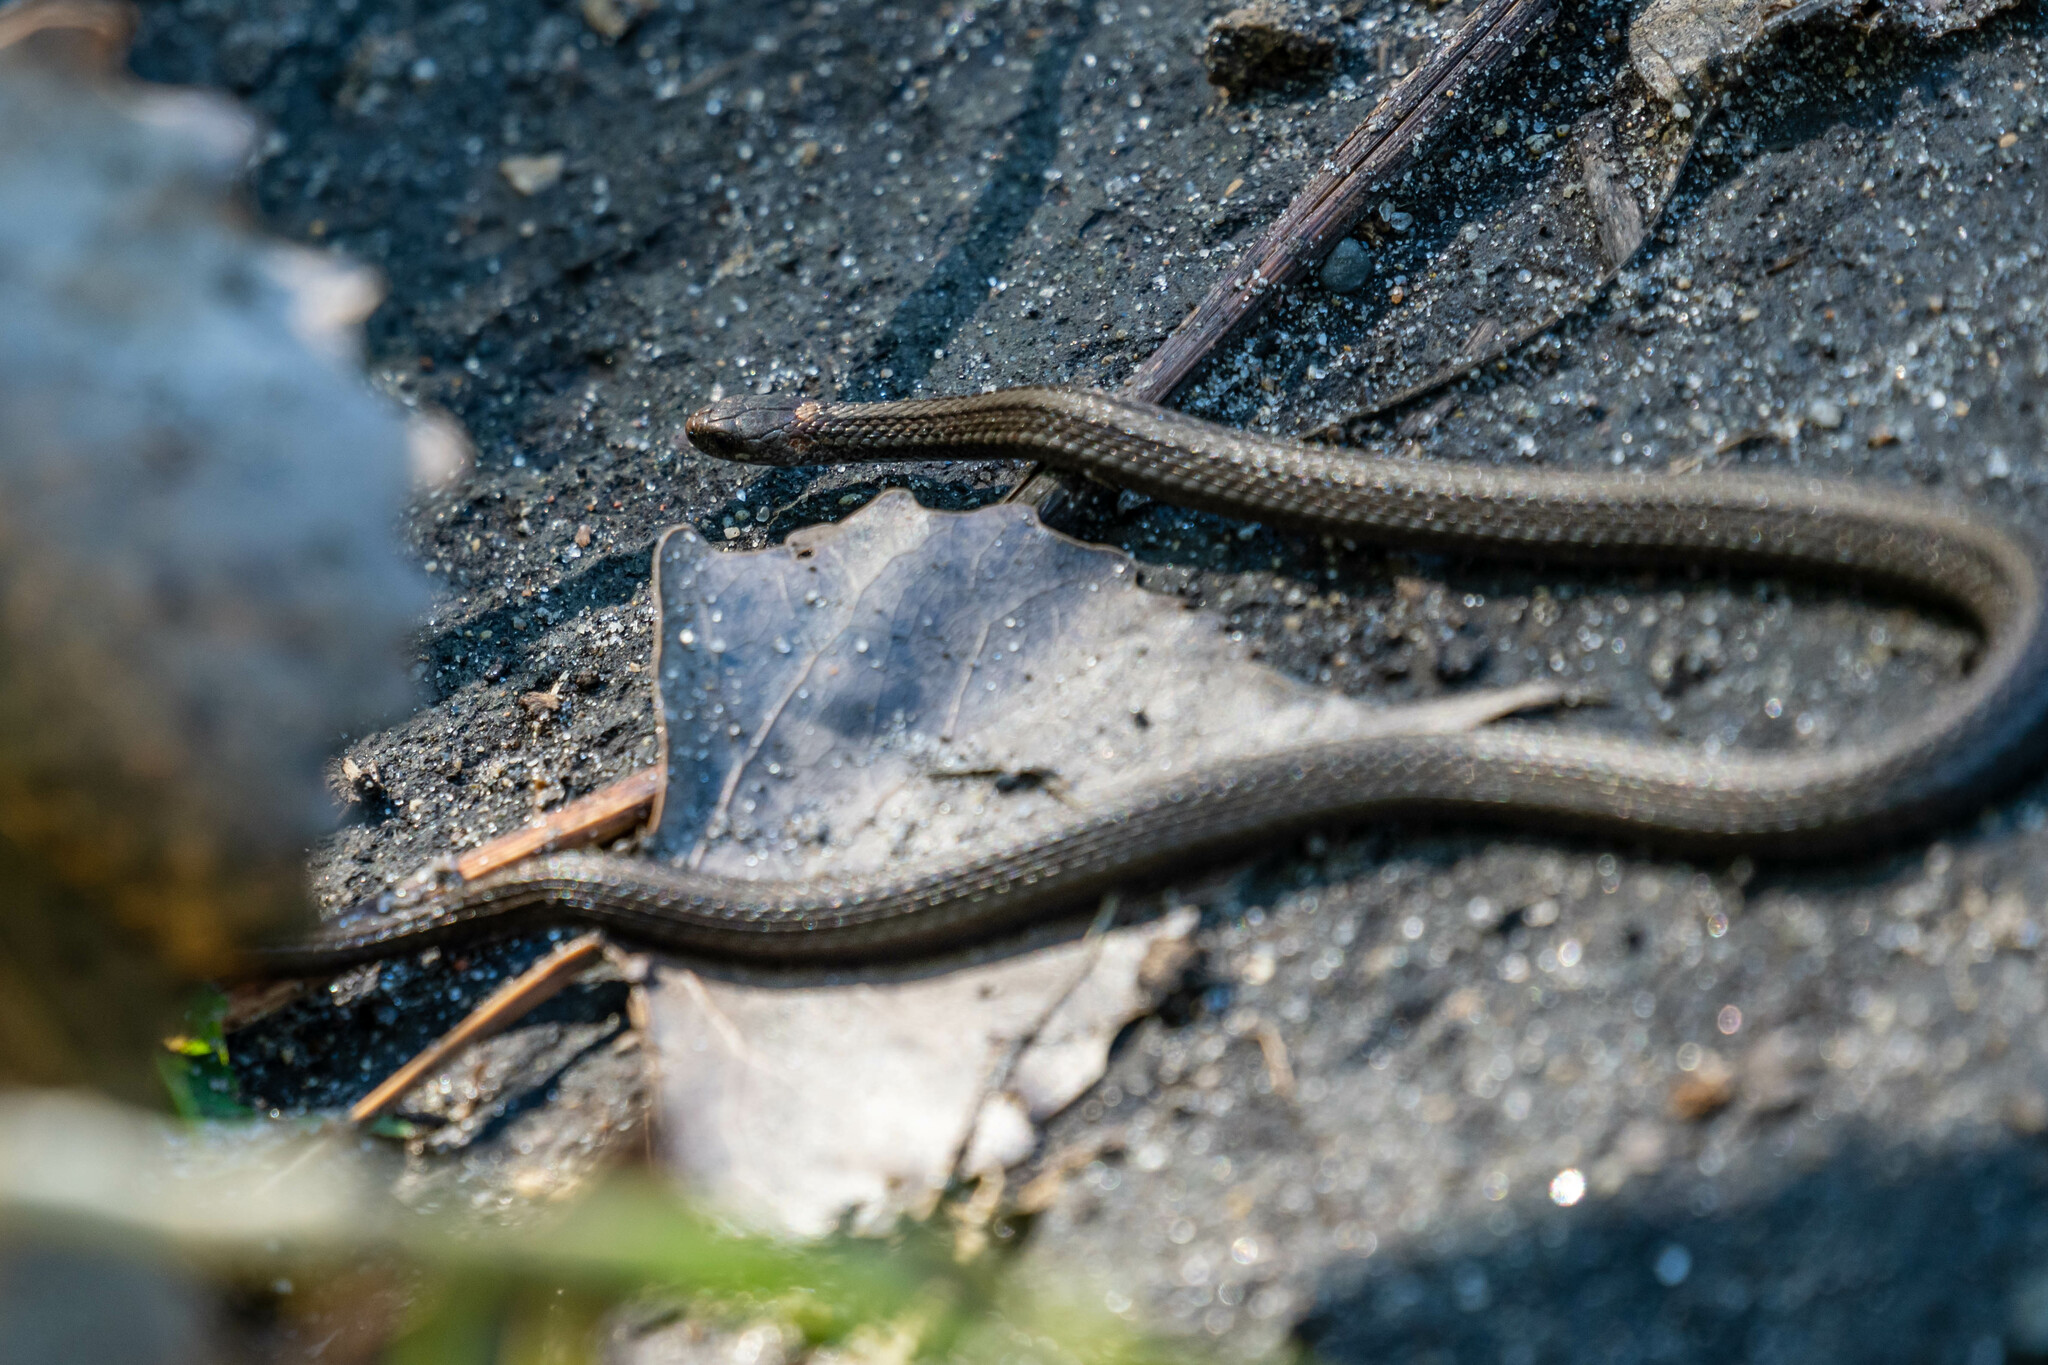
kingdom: Animalia
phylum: Chordata
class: Squamata
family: Colubridae
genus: Storeria
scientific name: Storeria occipitomaculata
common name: Redbelly snake
